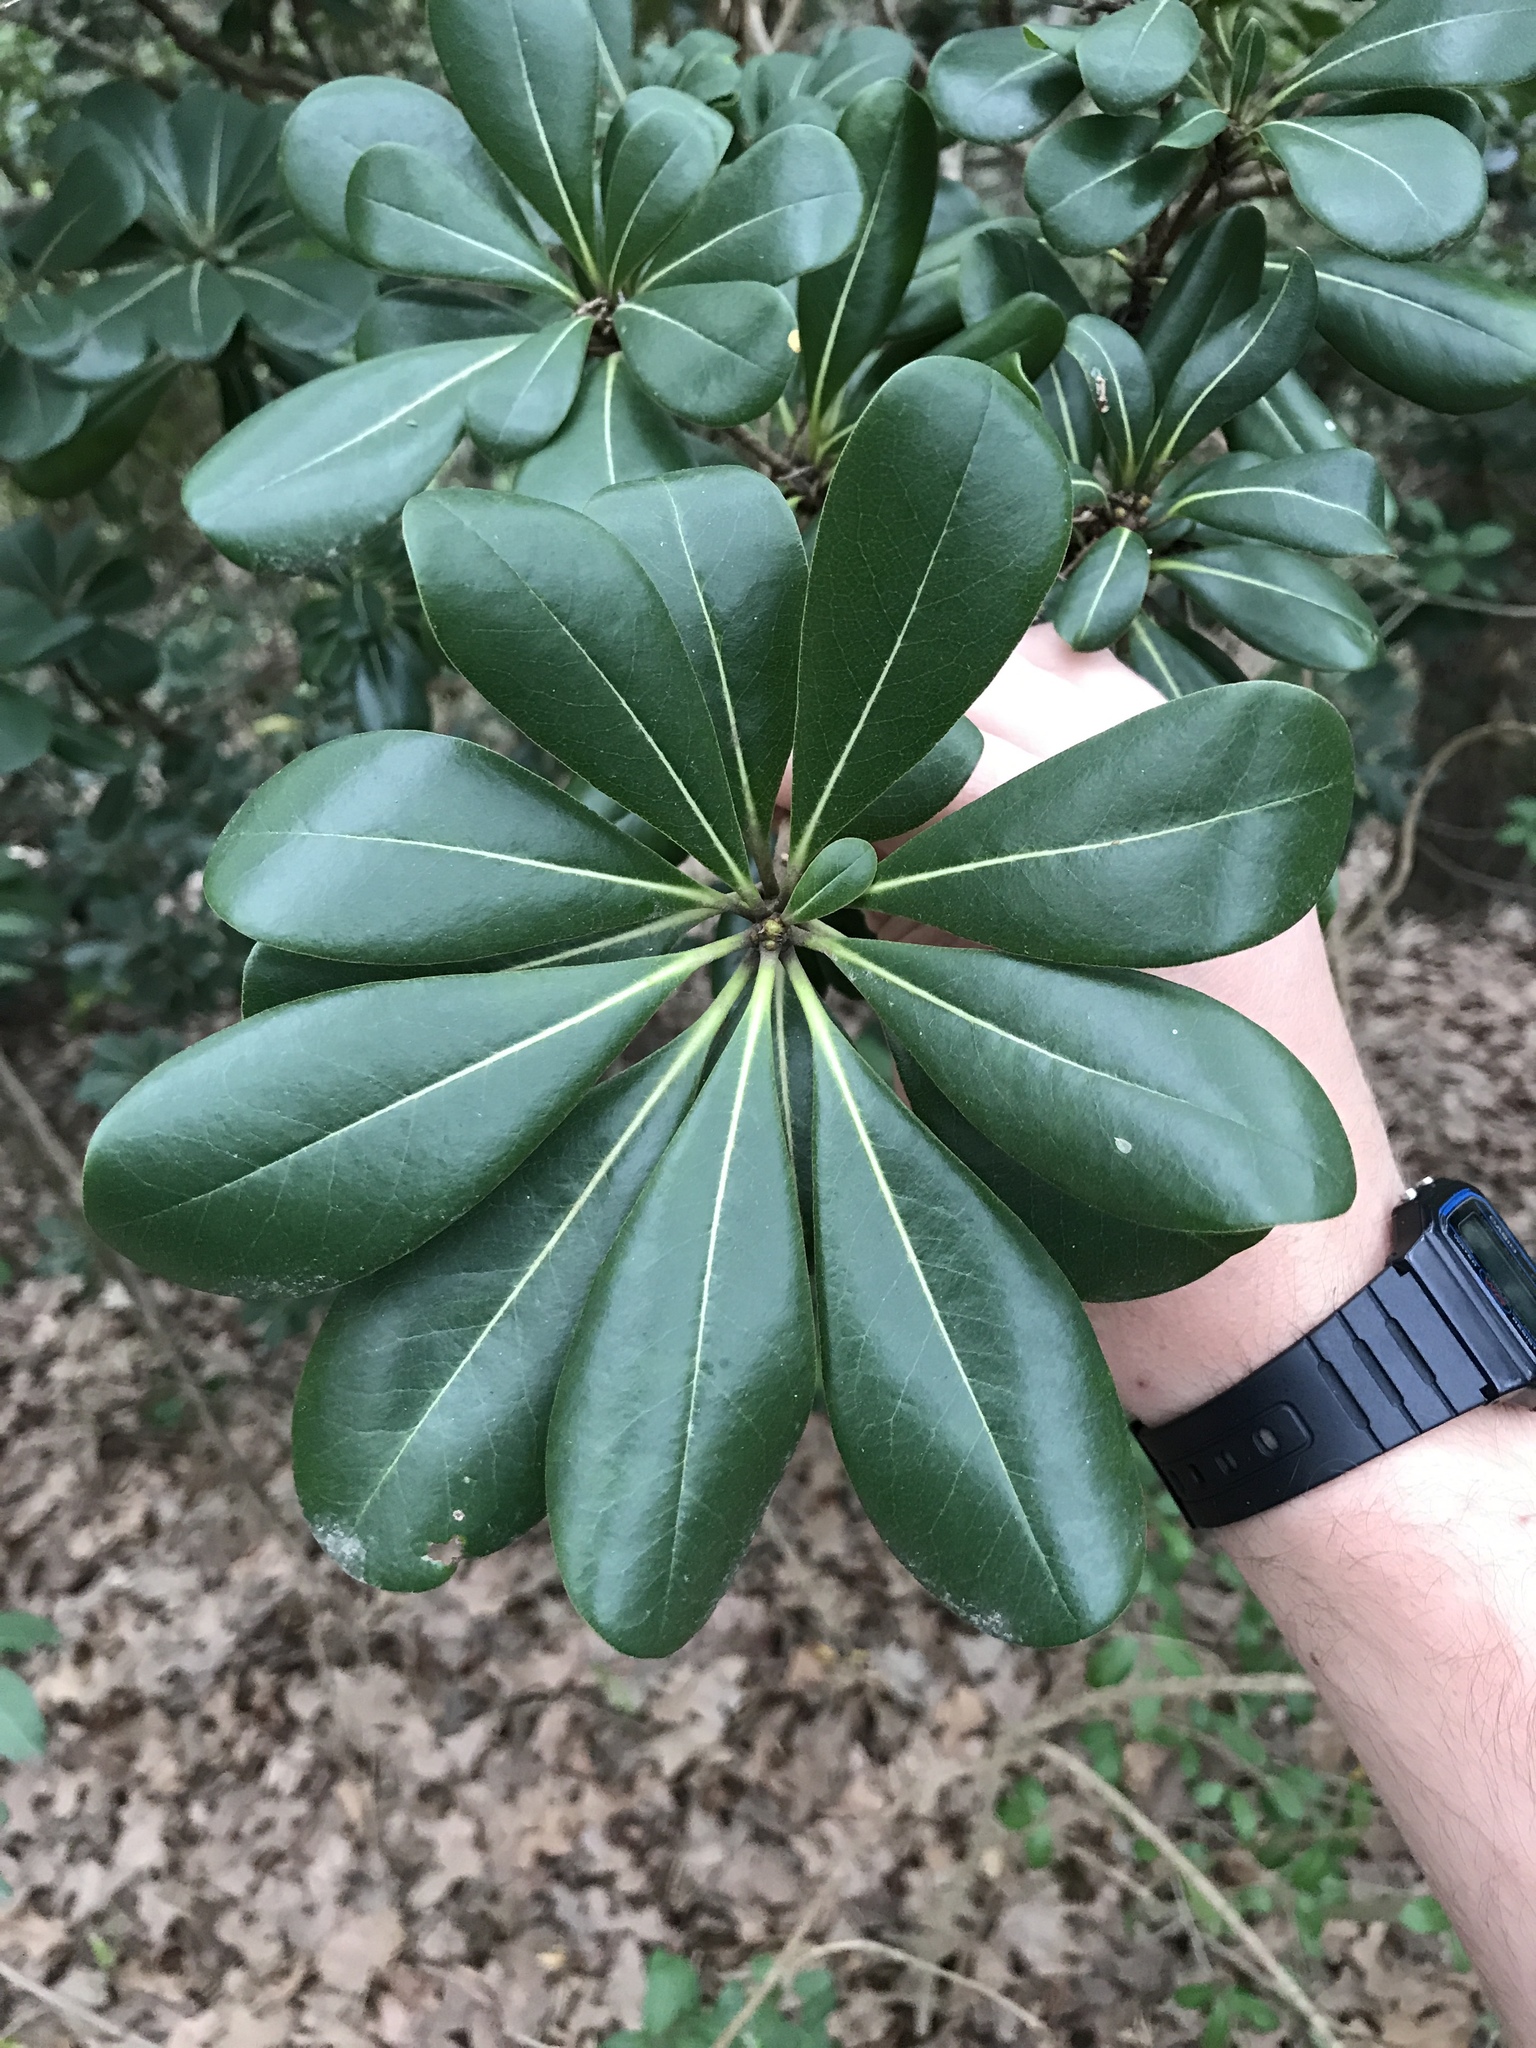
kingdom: Plantae
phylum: Tracheophyta
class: Magnoliopsida
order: Apiales
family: Pittosporaceae
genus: Pittosporum
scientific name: Pittosporum tobira
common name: Japanese cheesewood
